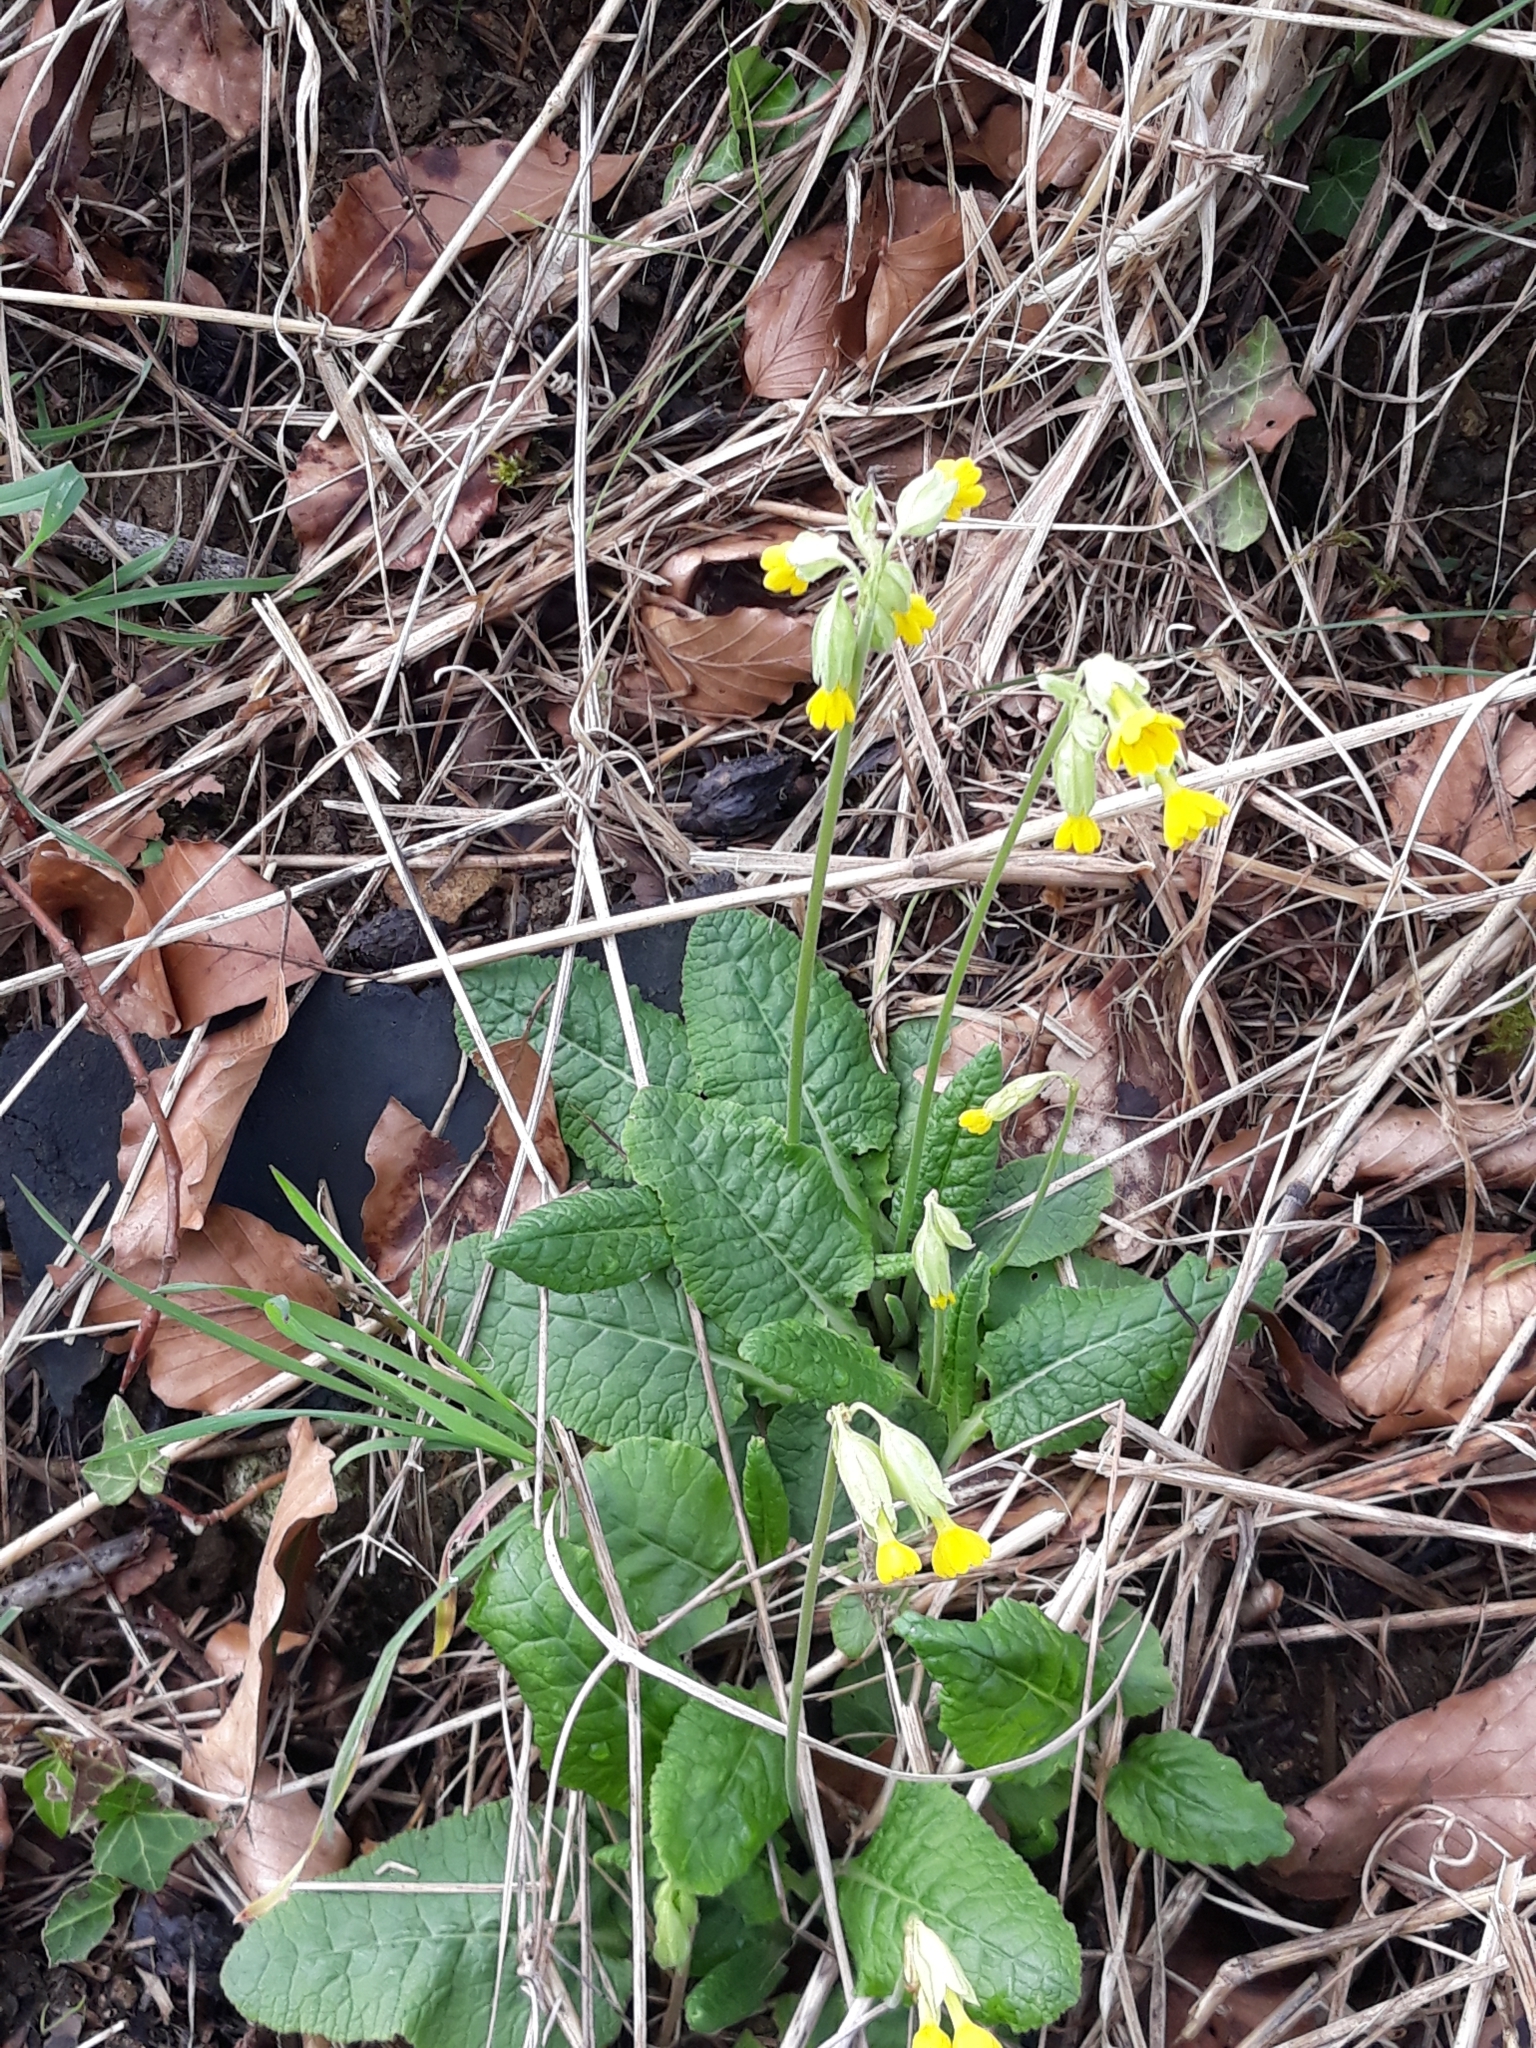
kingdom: Plantae
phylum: Tracheophyta
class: Magnoliopsida
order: Ericales
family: Primulaceae
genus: Primula
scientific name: Primula veris
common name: Cowslip
